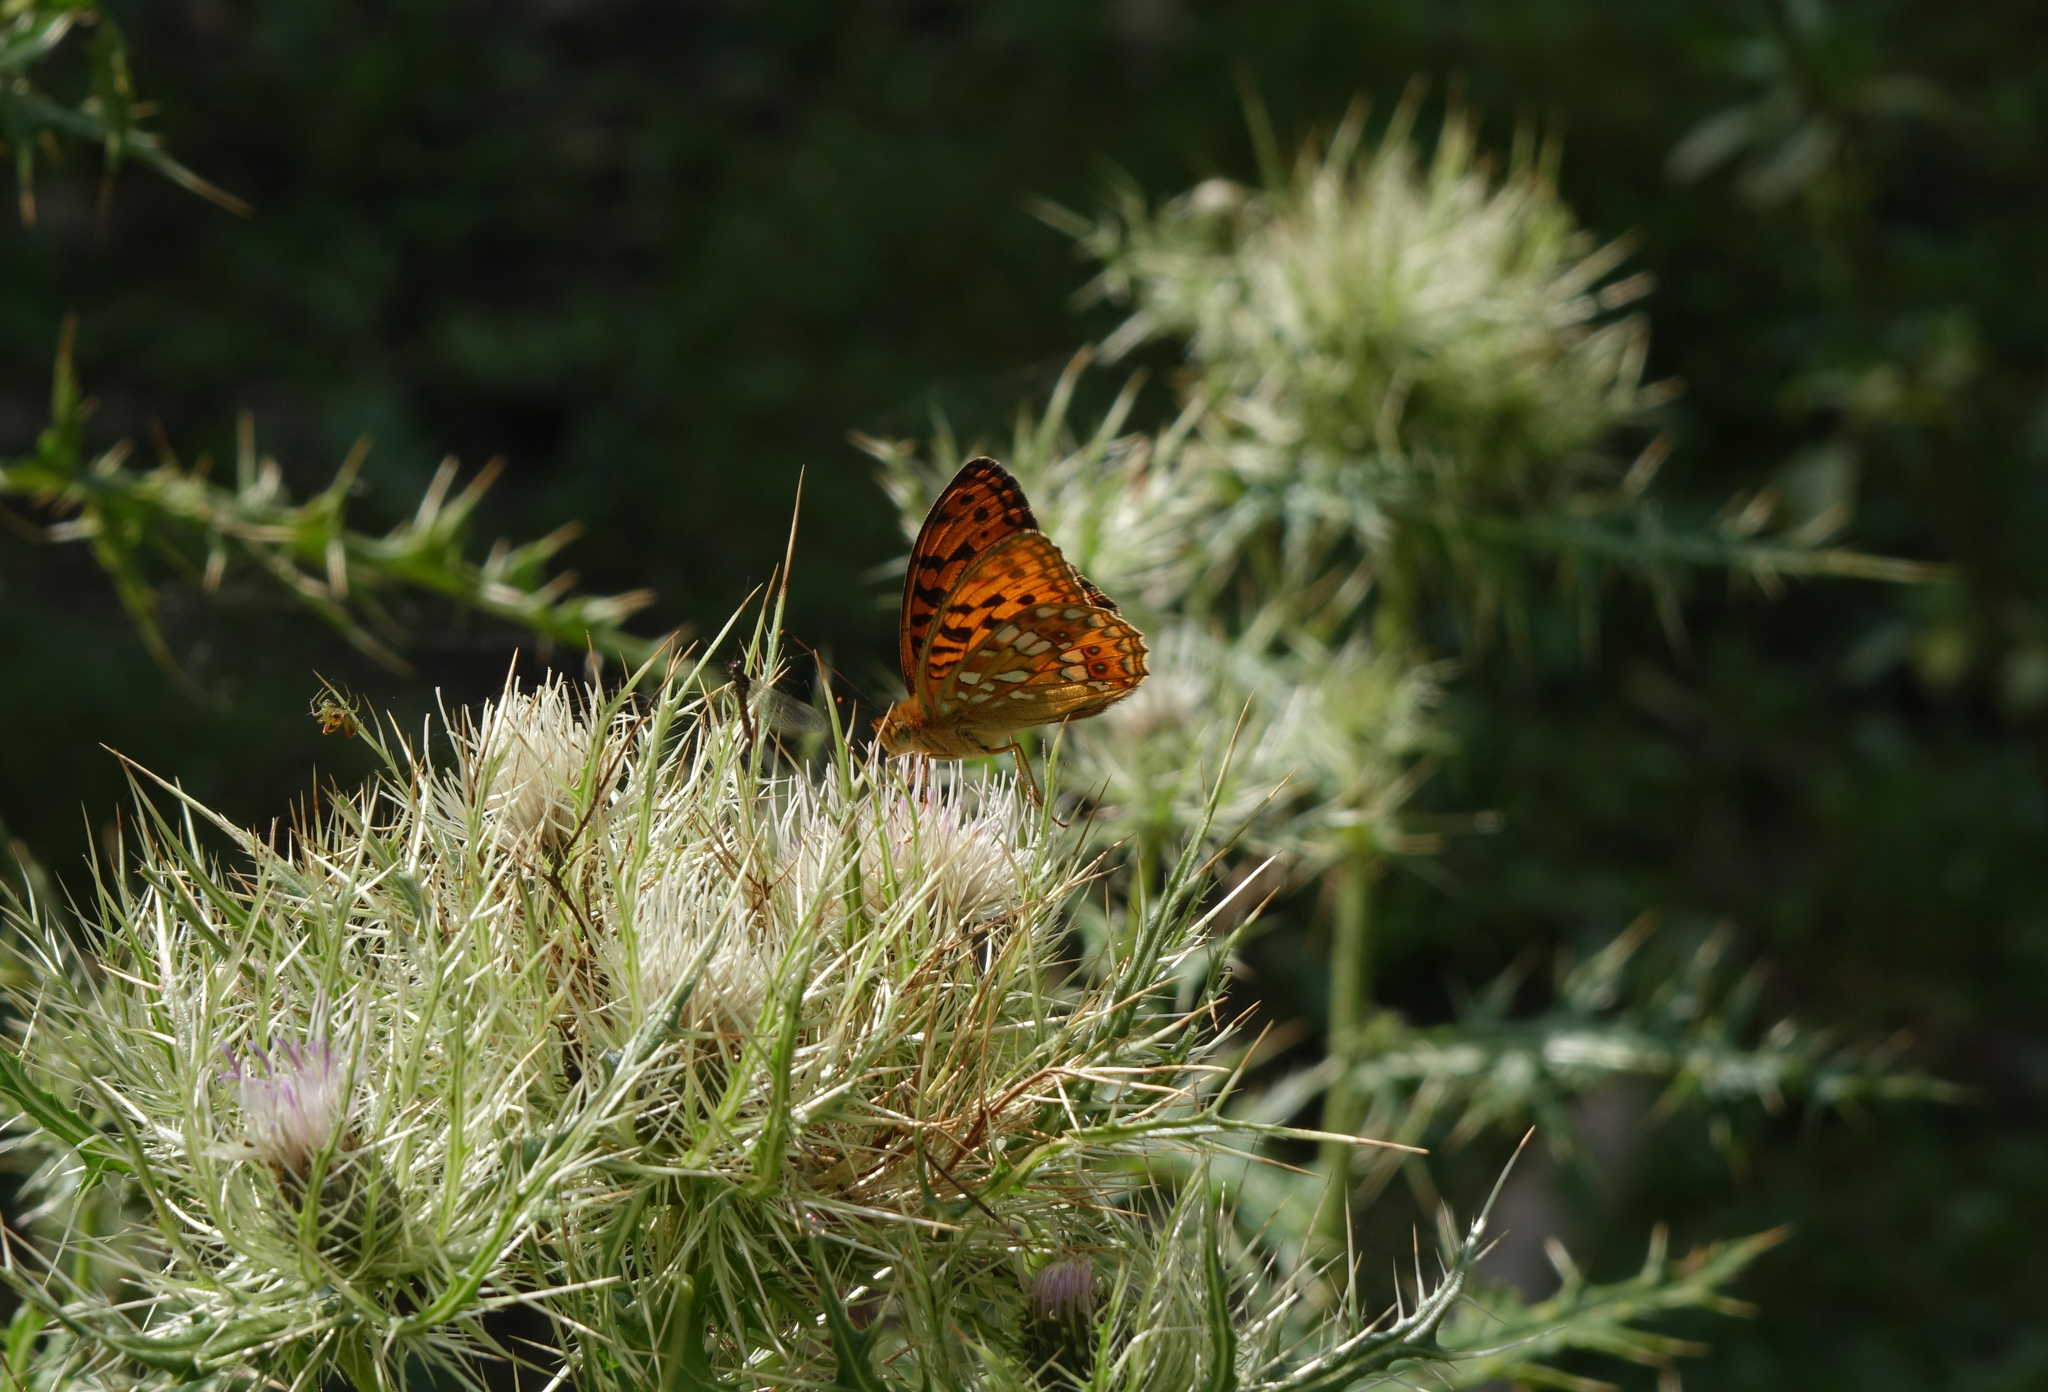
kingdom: Plantae
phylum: Tracheophyta
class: Magnoliopsida
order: Asterales
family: Asteraceae
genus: Cirsium
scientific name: Cirsium obvallatum
